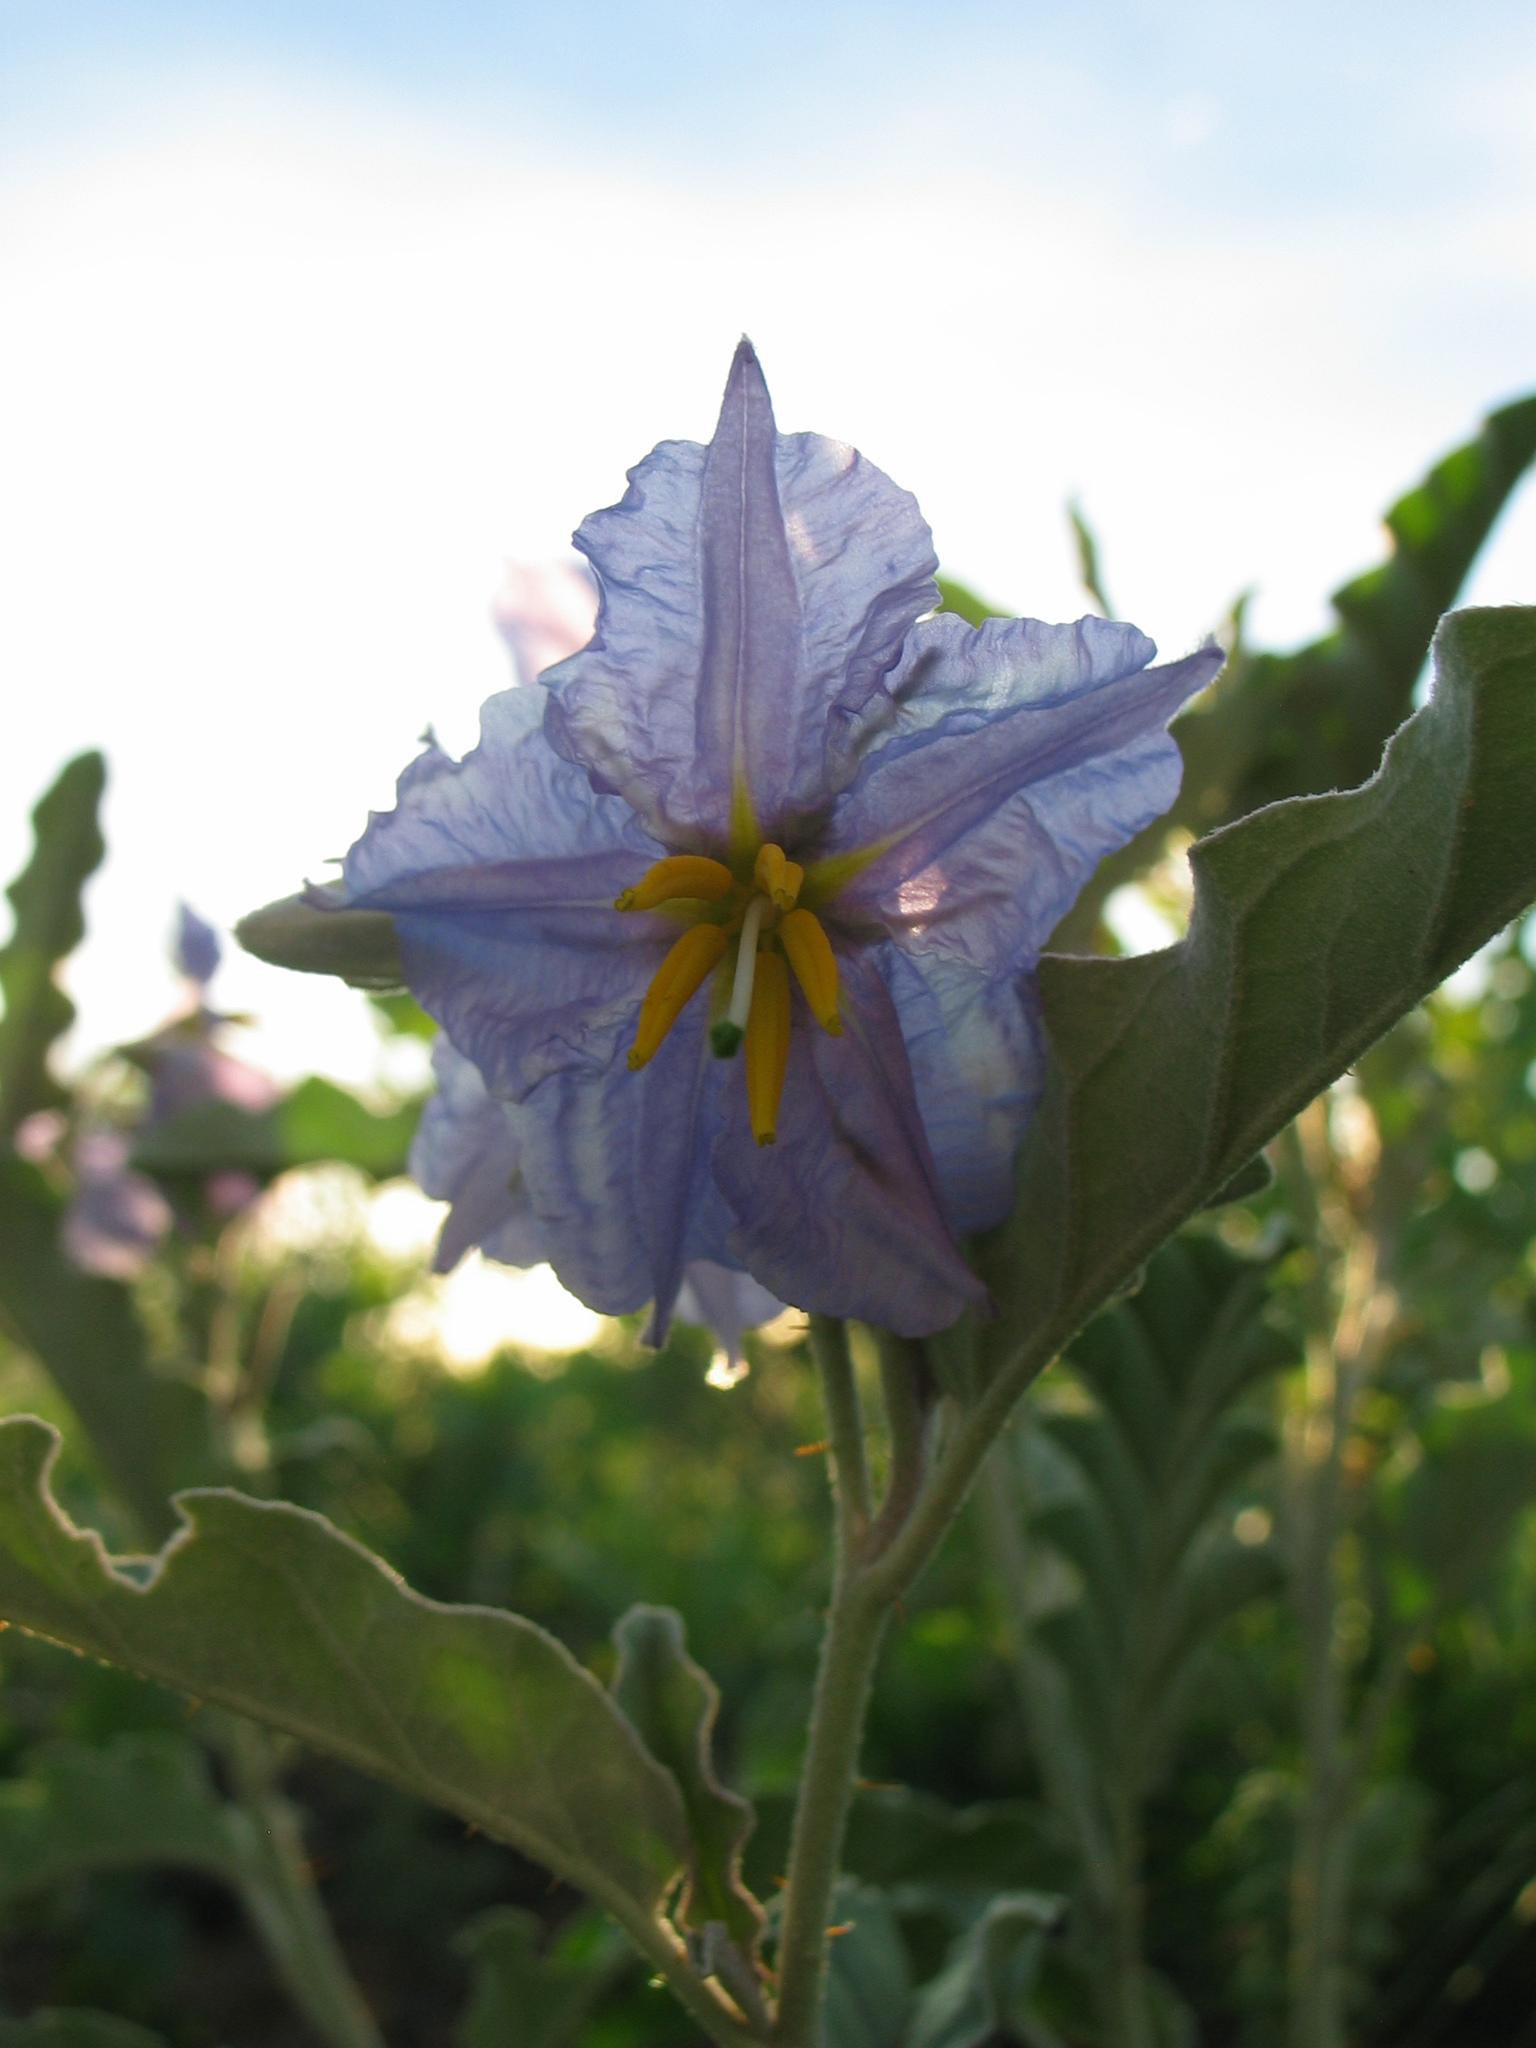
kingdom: Plantae
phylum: Tracheophyta
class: Magnoliopsida
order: Solanales
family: Solanaceae
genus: Solanum
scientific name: Solanum elaeagnifolium
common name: Silverleaf nightshade
